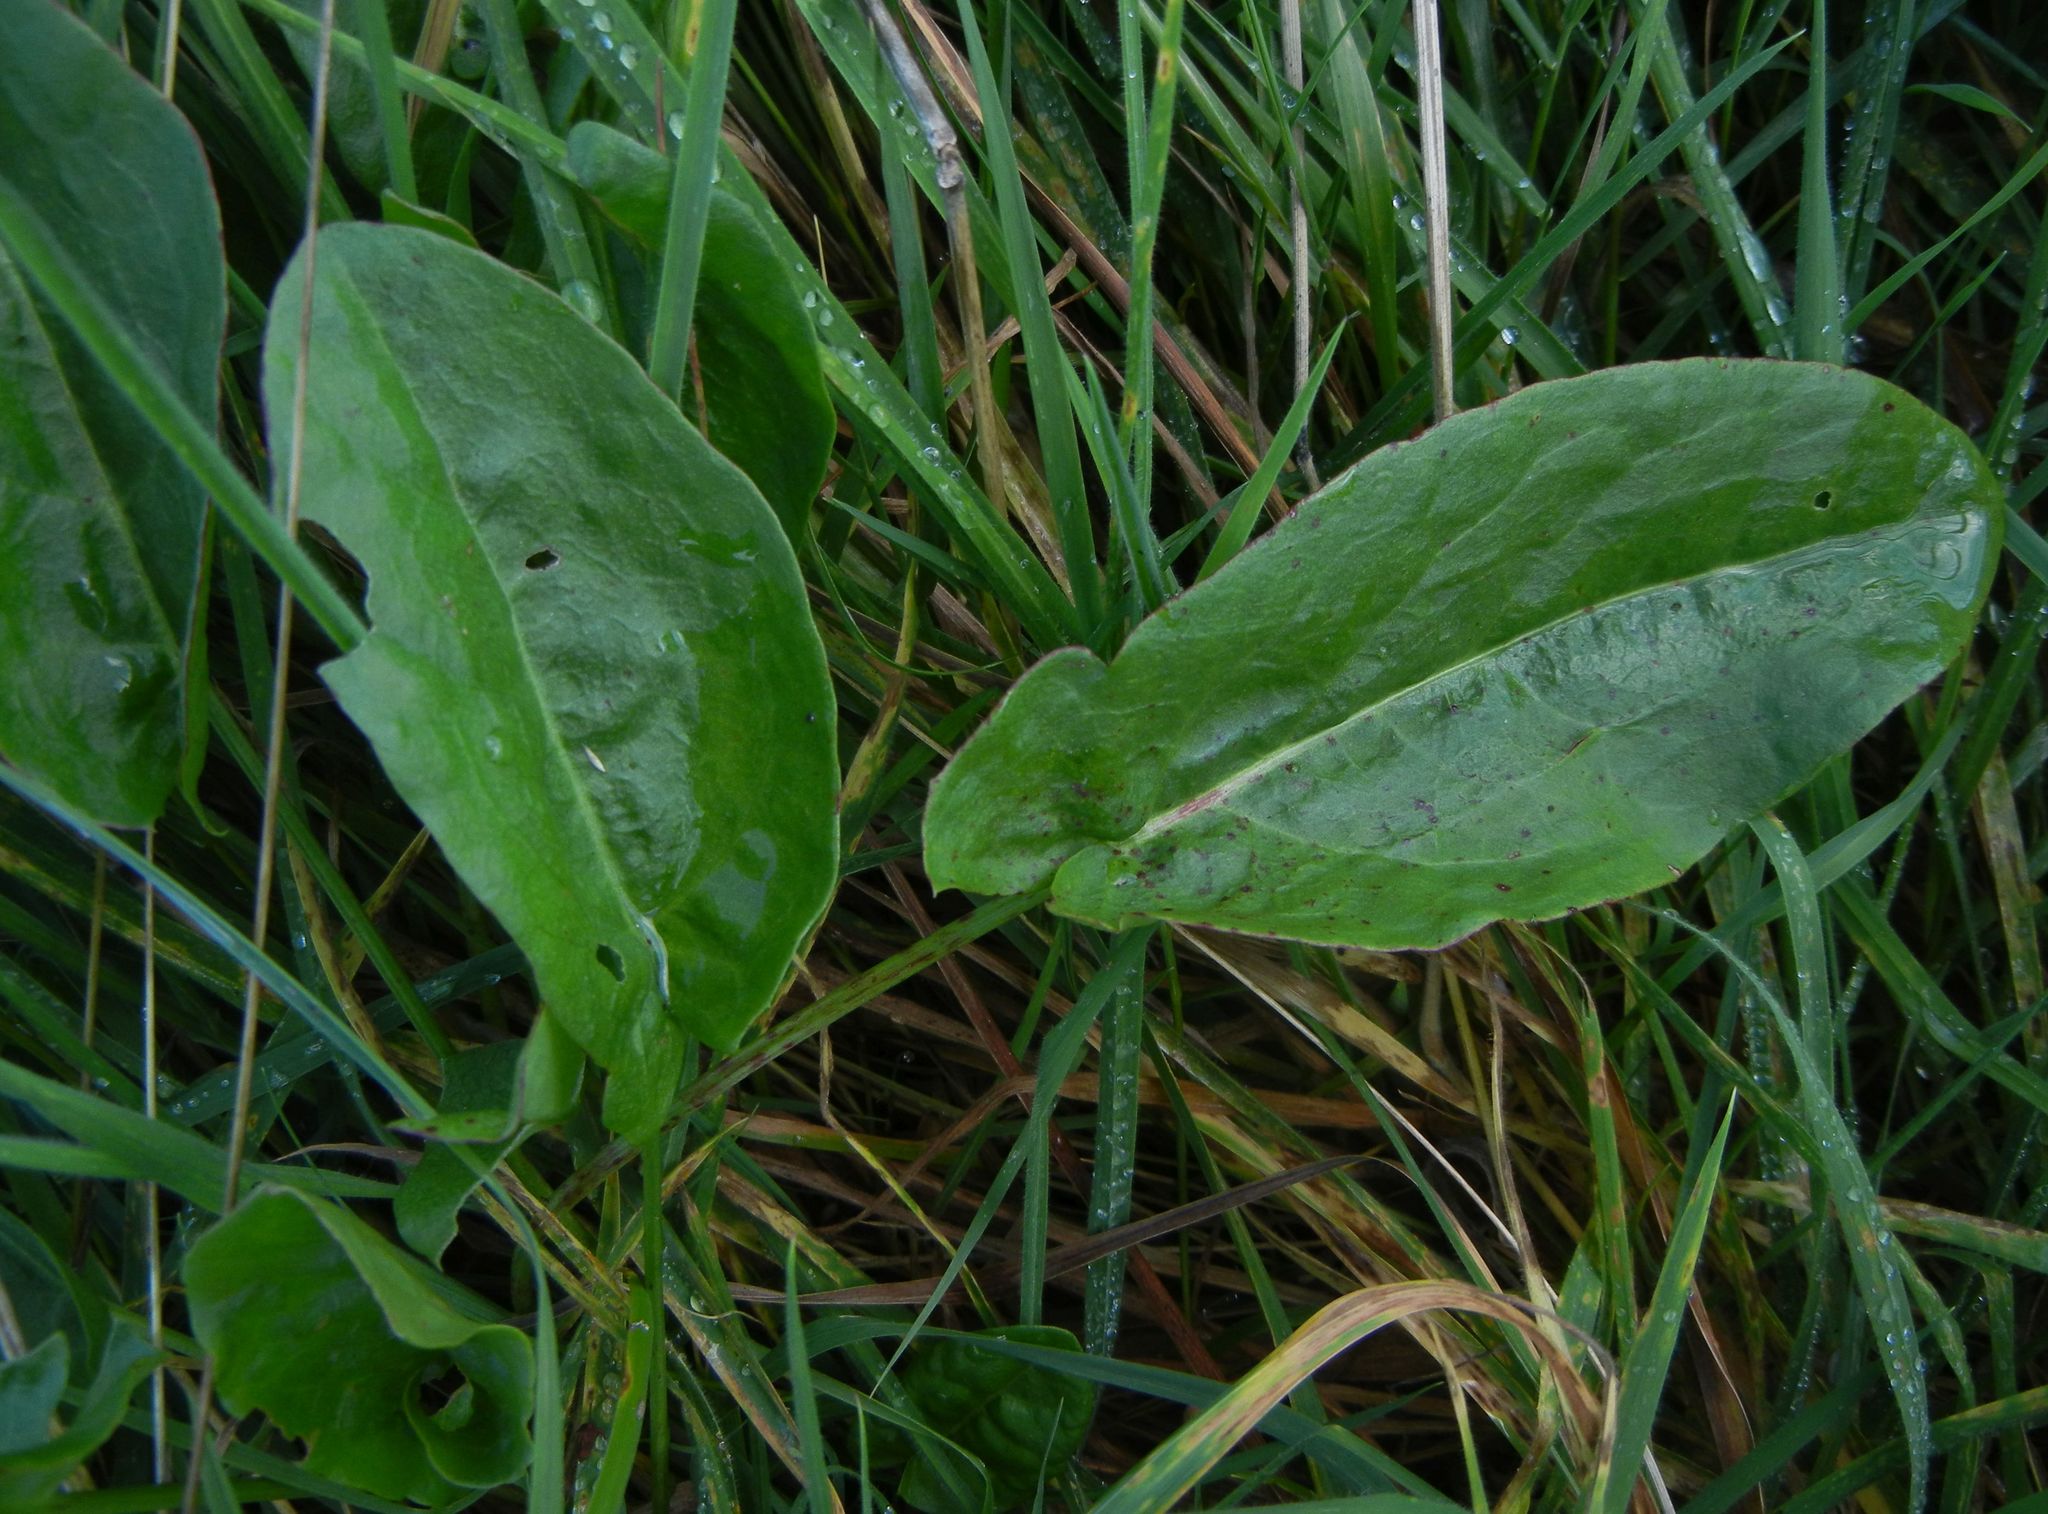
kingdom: Plantae
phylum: Tracheophyta
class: Magnoliopsida
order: Caryophyllales
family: Polygonaceae
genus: Rumex
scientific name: Rumex acetosa
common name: Garden sorrel
